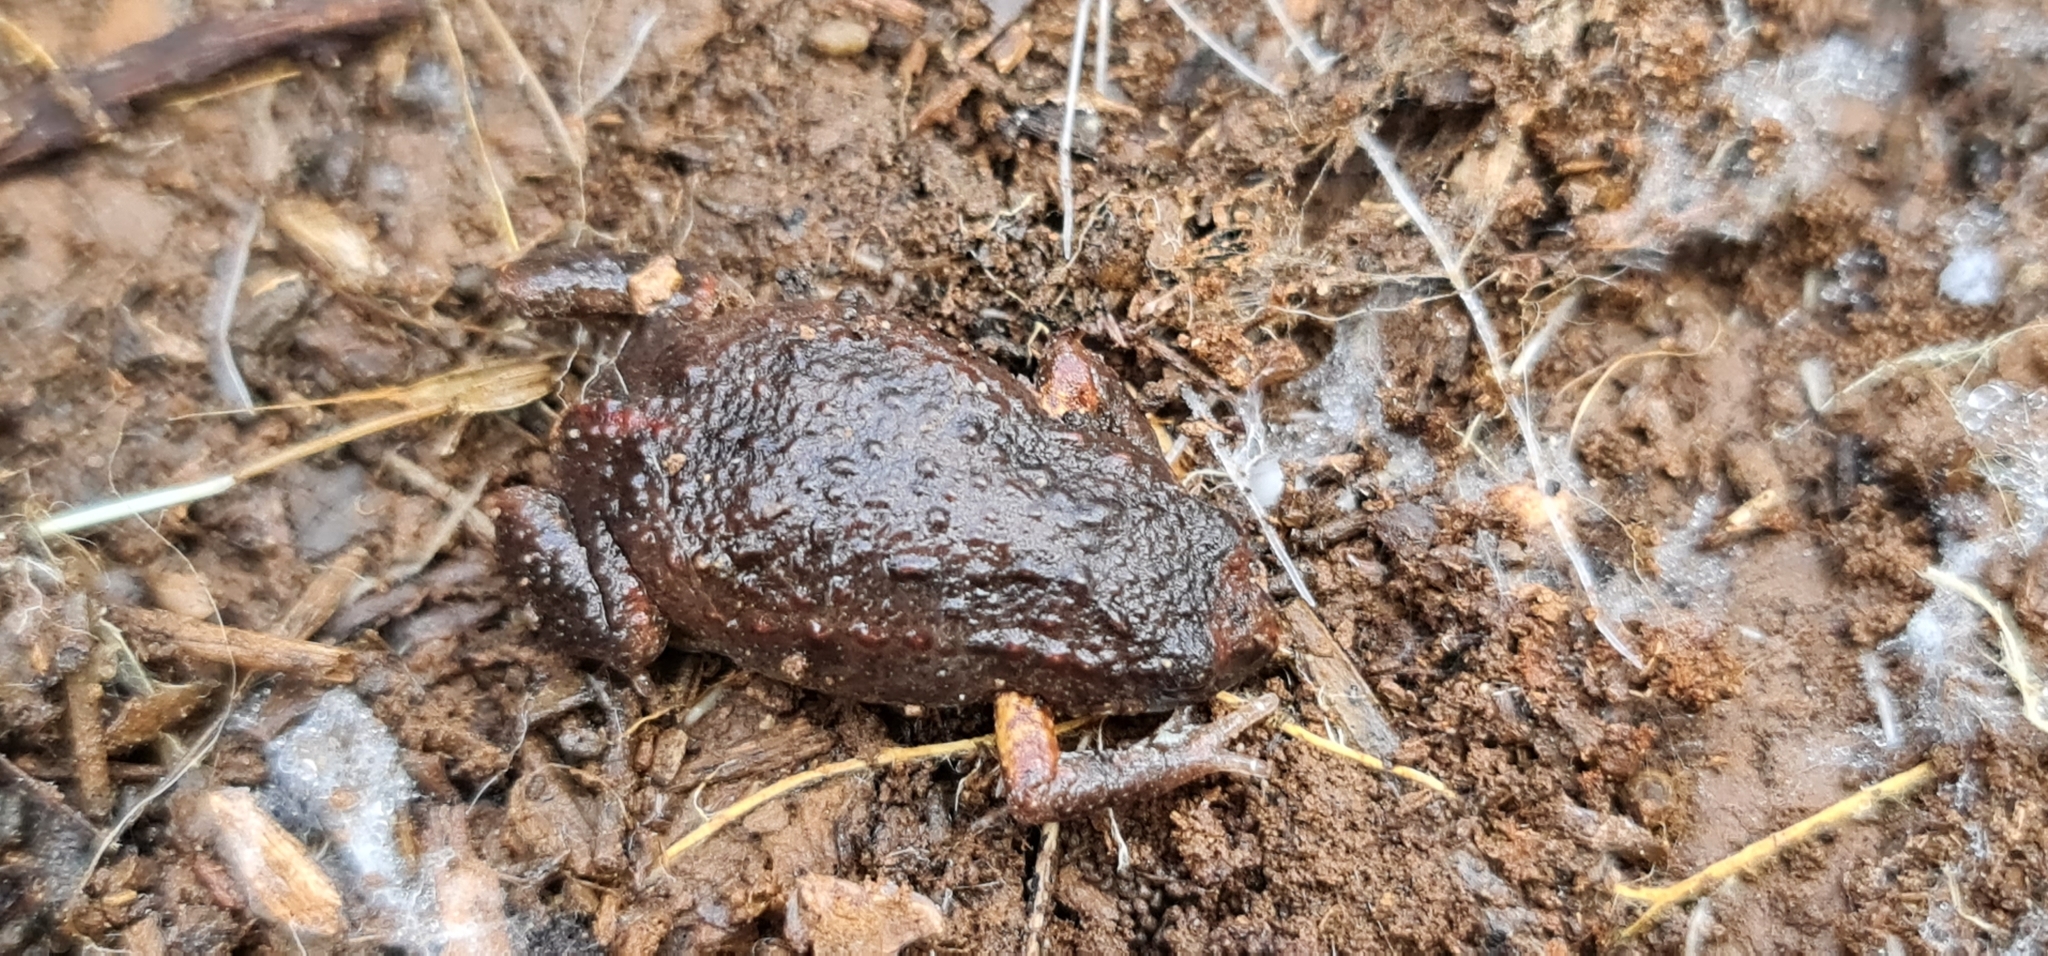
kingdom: Animalia
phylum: Chordata
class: Amphibia
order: Anura
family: Myobatrachidae
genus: Pseudophryne
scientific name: Pseudophryne bibronii
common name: Bibron’s toadlet
